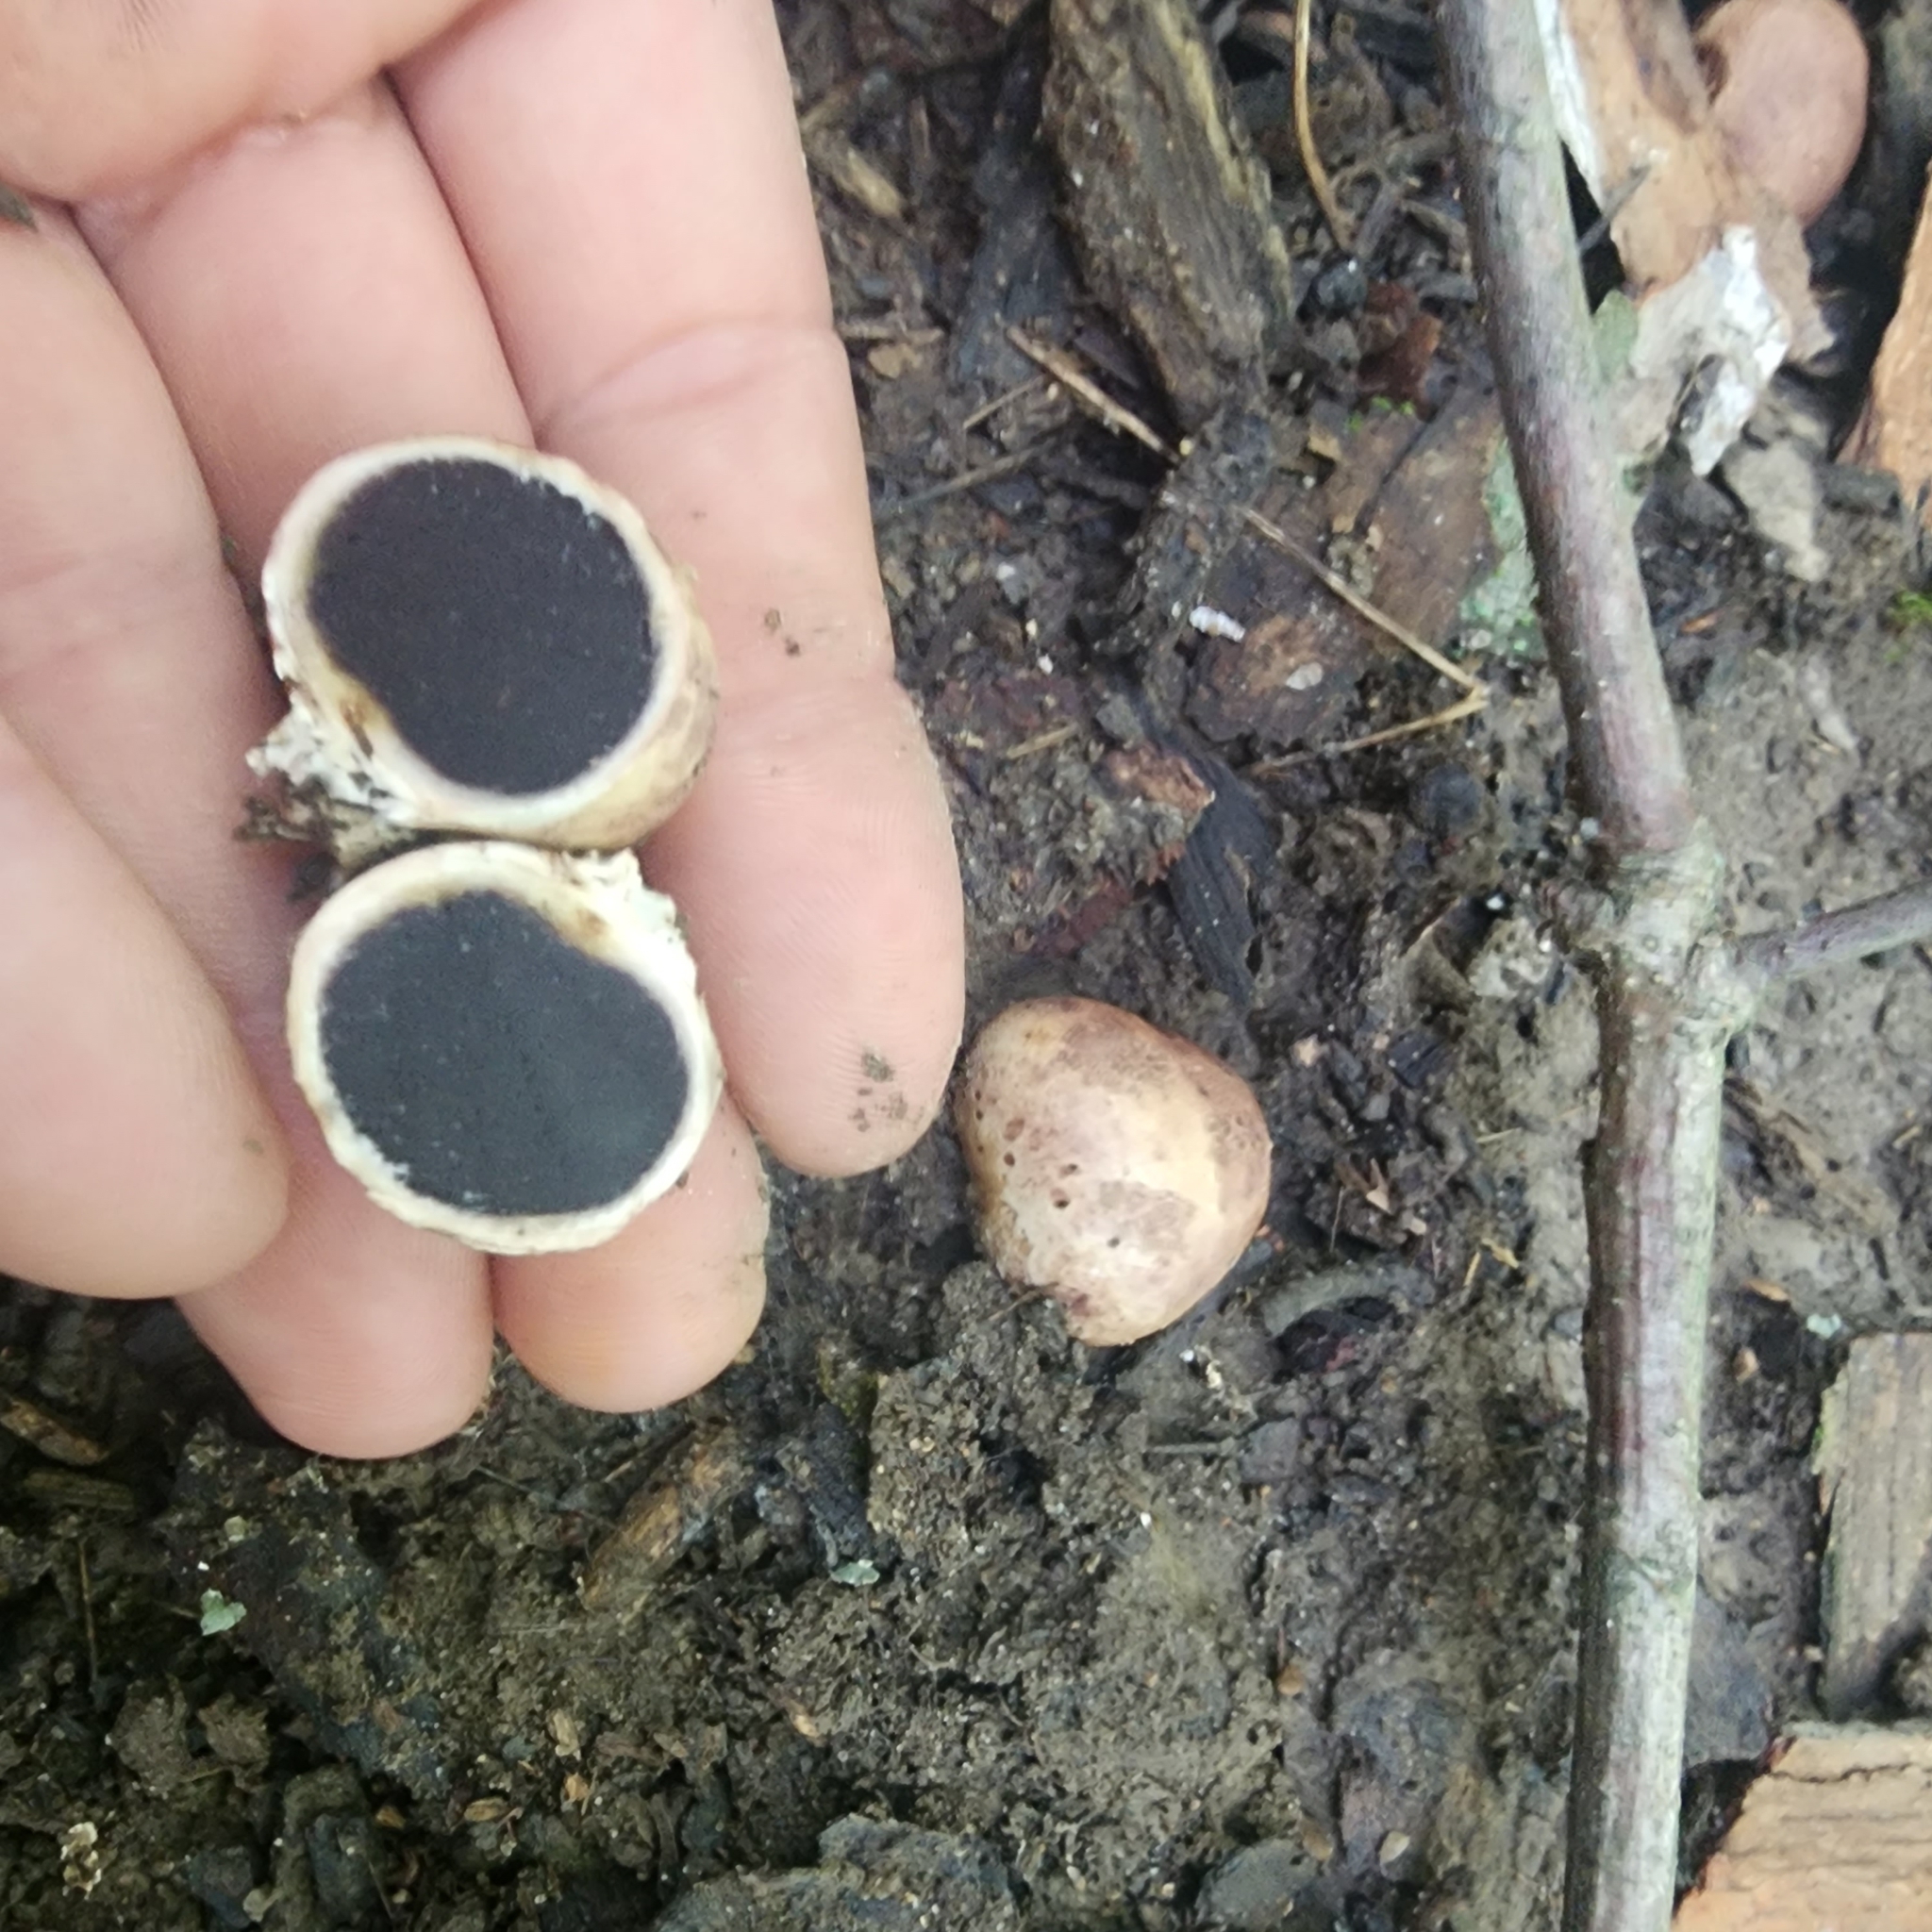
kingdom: Fungi
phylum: Basidiomycota
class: Agaricomycetes
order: Boletales
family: Sclerodermataceae
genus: Scleroderma
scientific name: Scleroderma cepa
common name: Onion earthball
